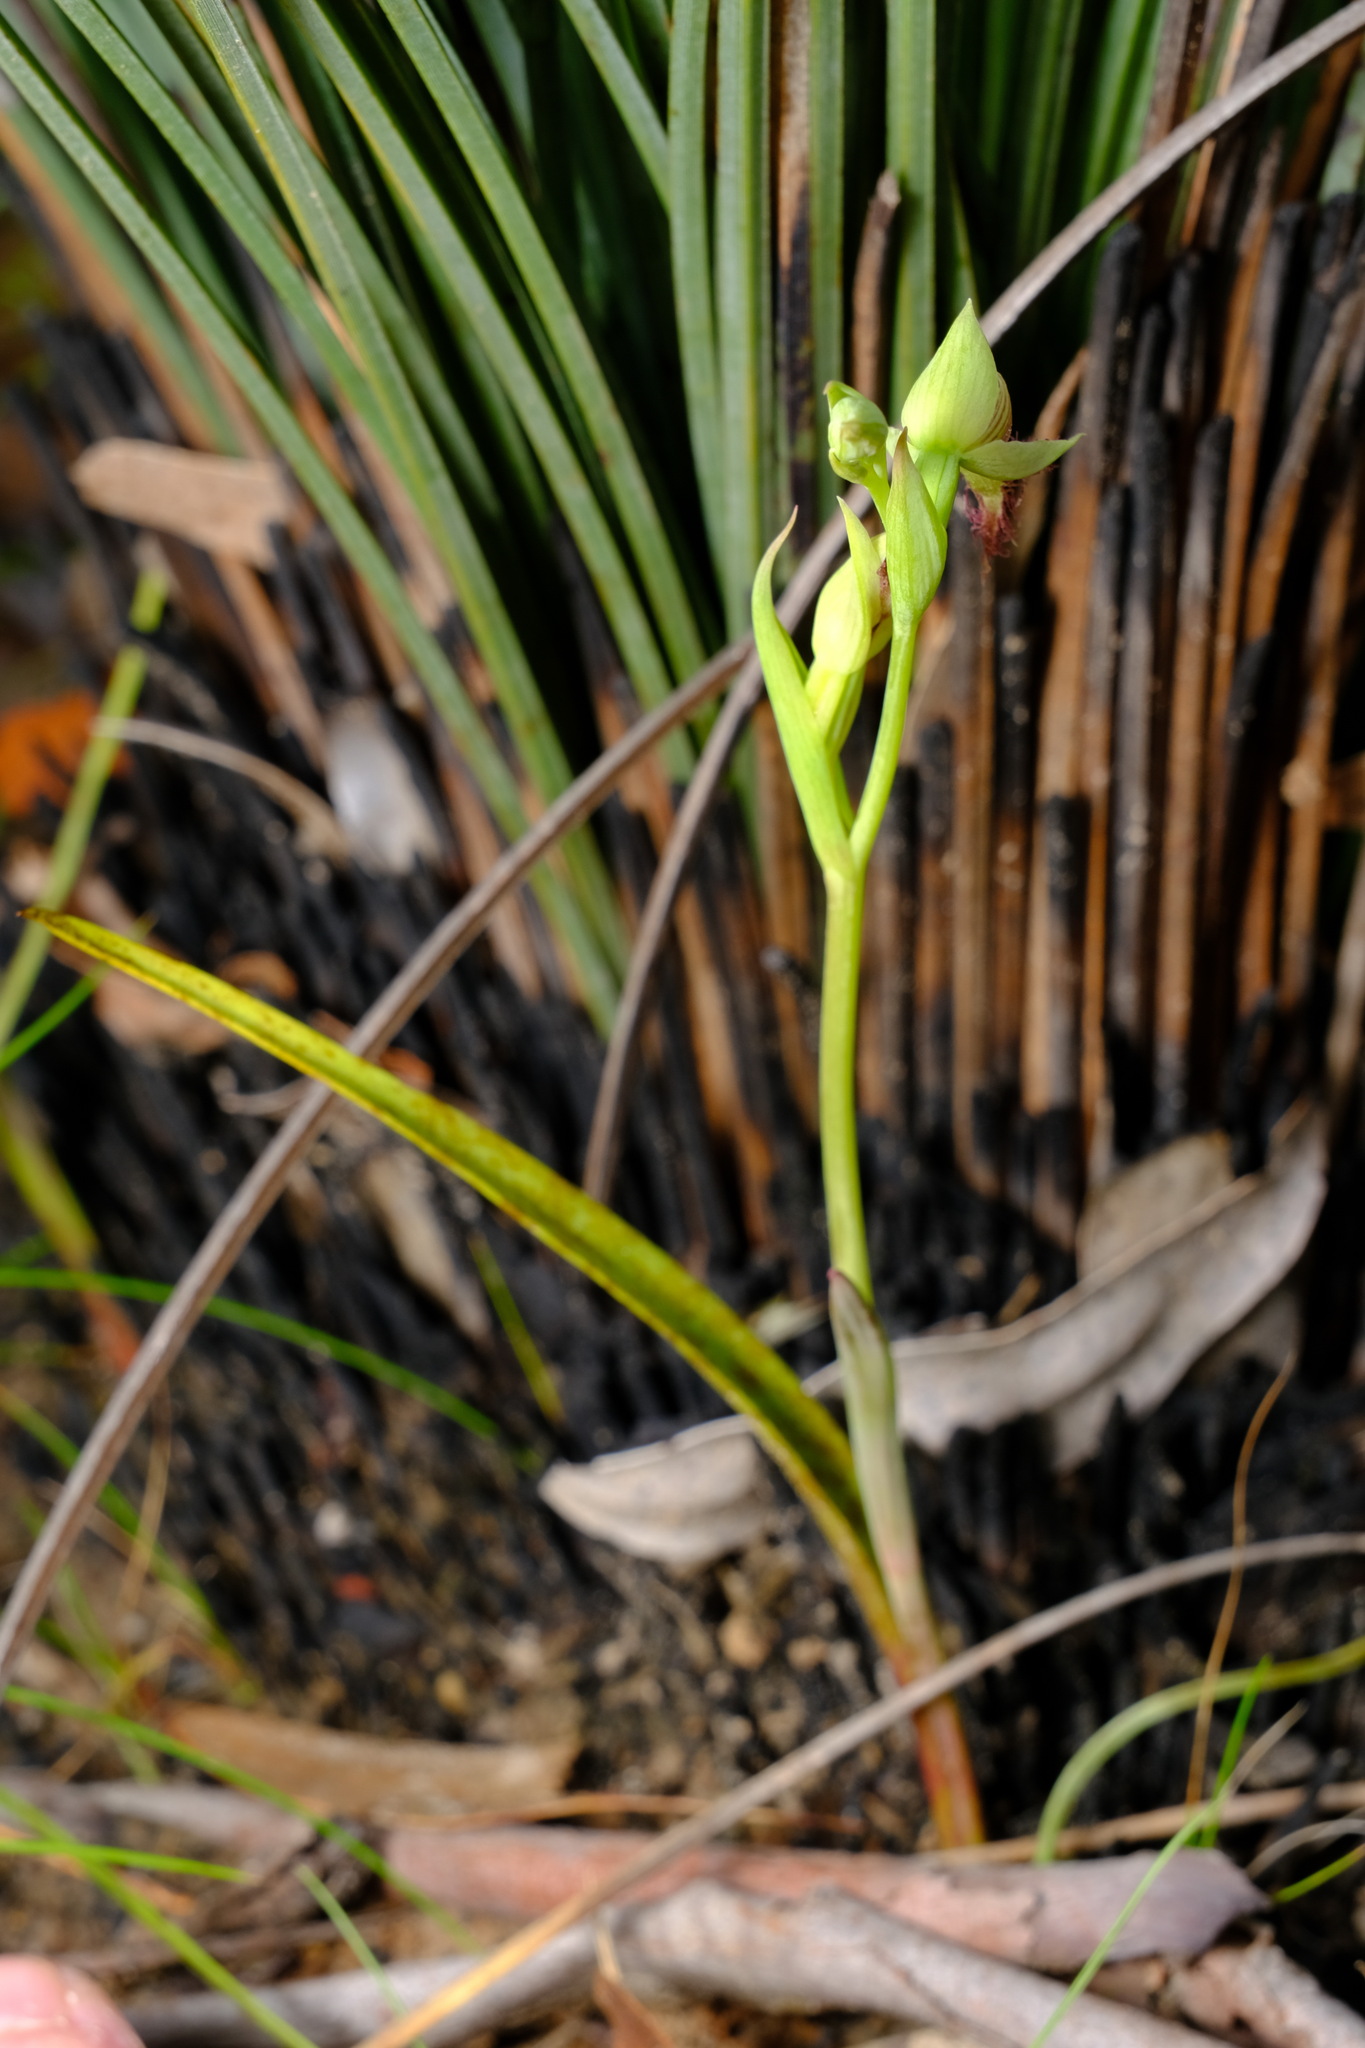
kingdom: Plantae
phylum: Tracheophyta
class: Liliopsida
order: Asparagales
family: Orchidaceae
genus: Calochilus
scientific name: Calochilus robertsonii
